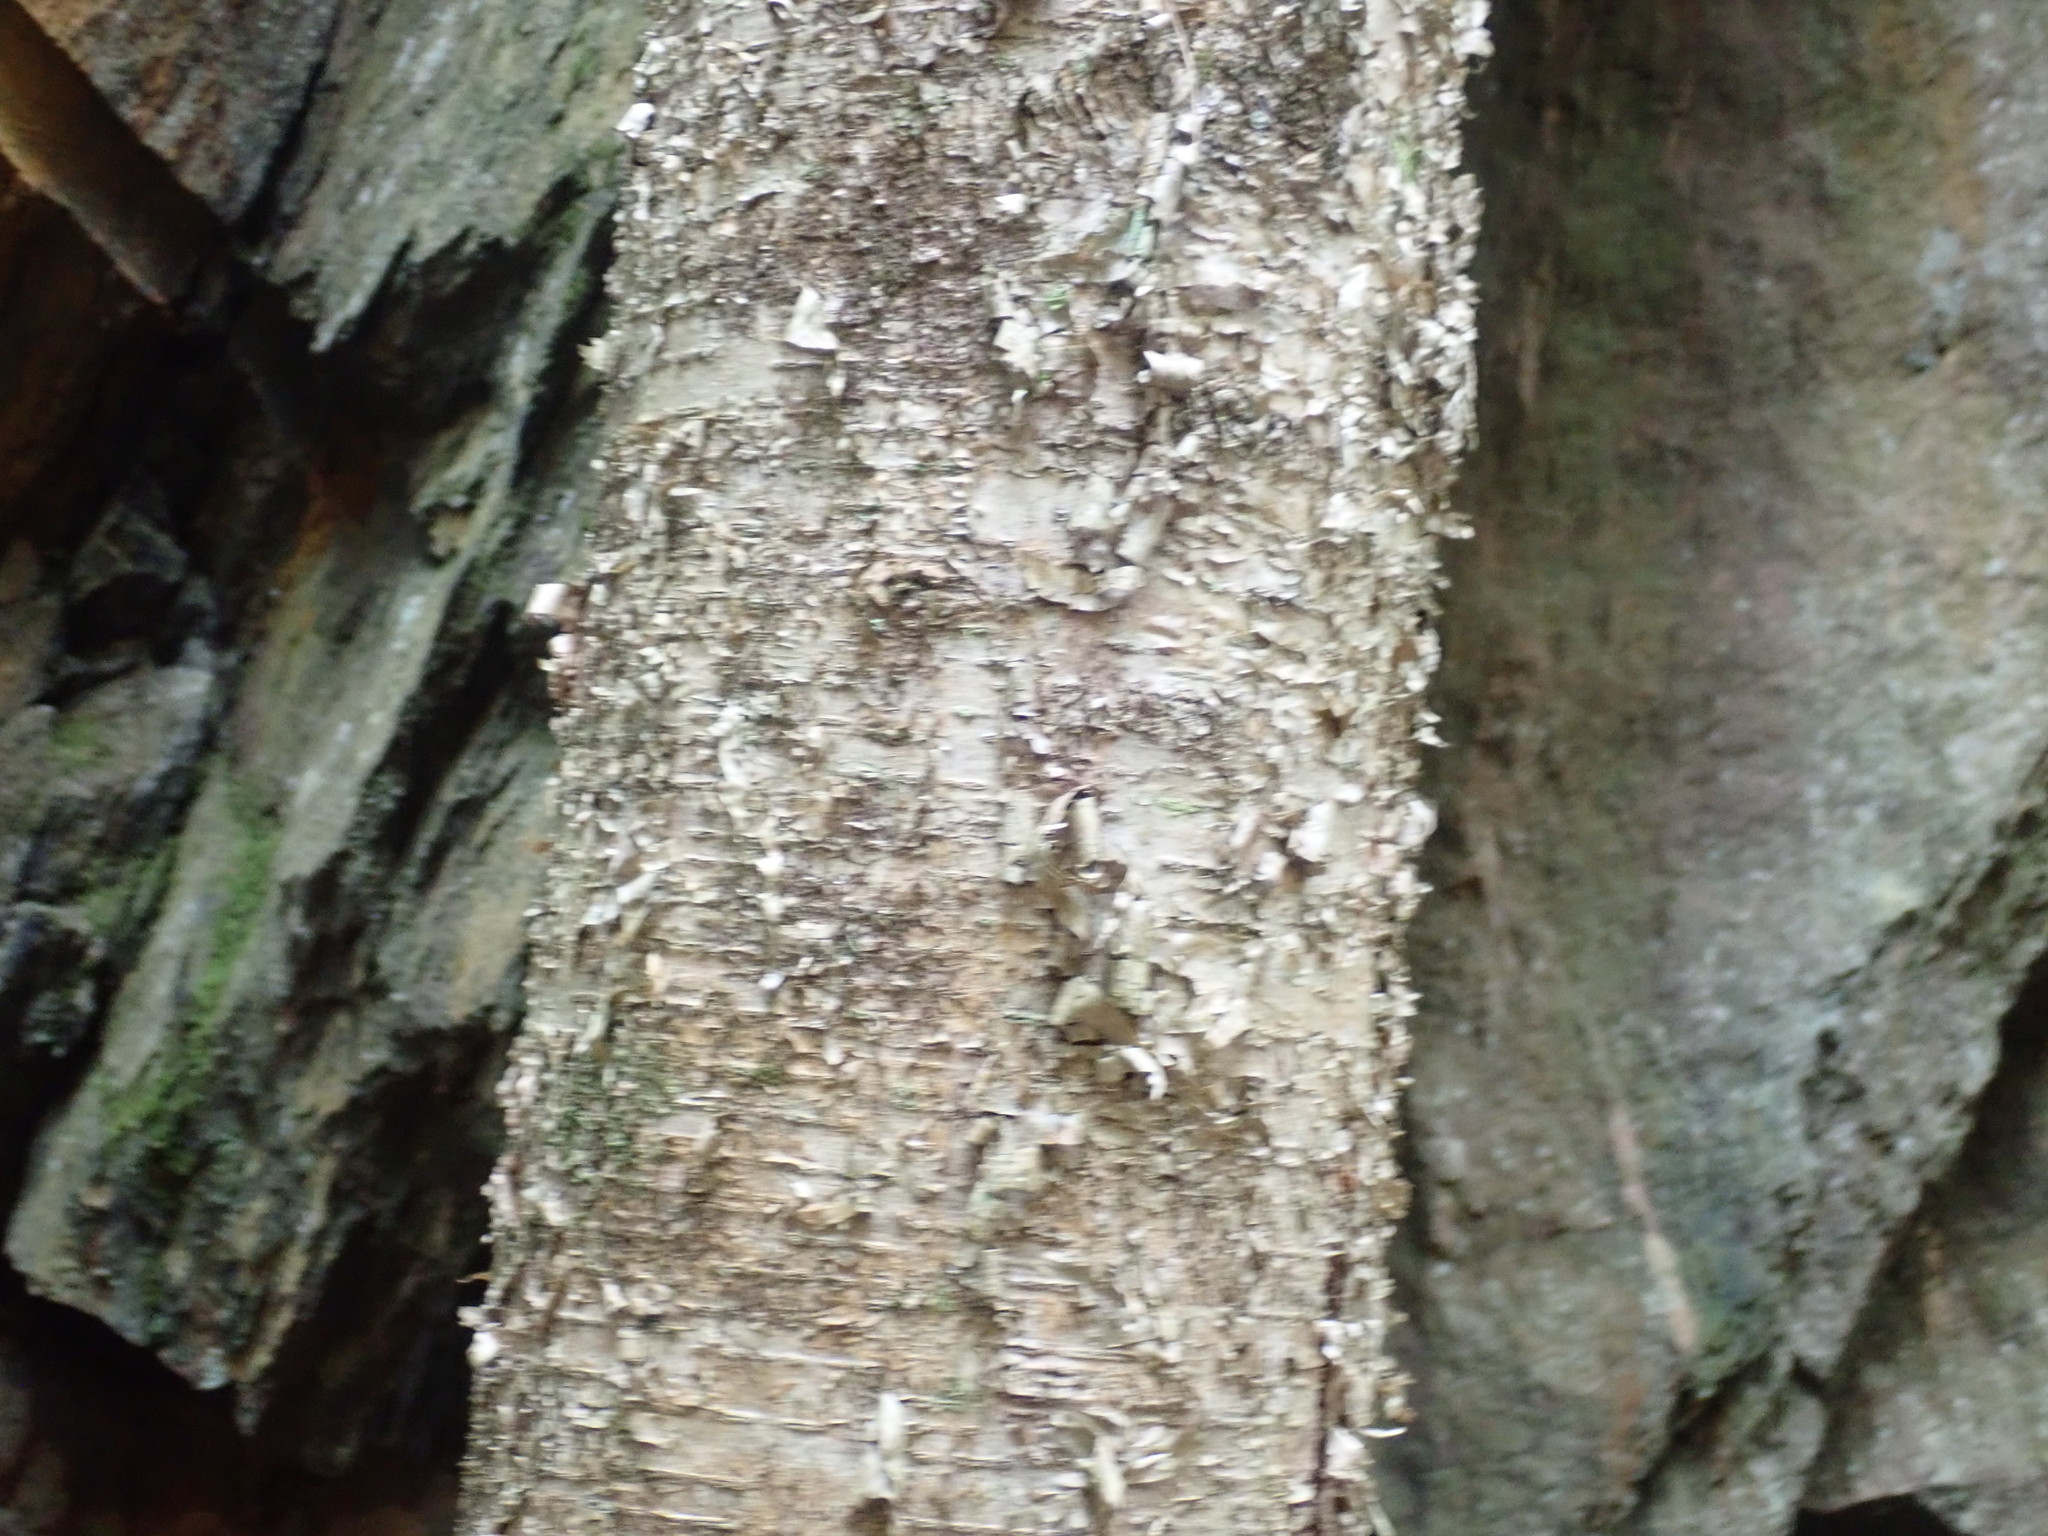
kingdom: Plantae
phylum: Tracheophyta
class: Magnoliopsida
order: Fagales
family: Betulaceae
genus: Betula
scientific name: Betula alleghaniensis
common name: Yellow birch
